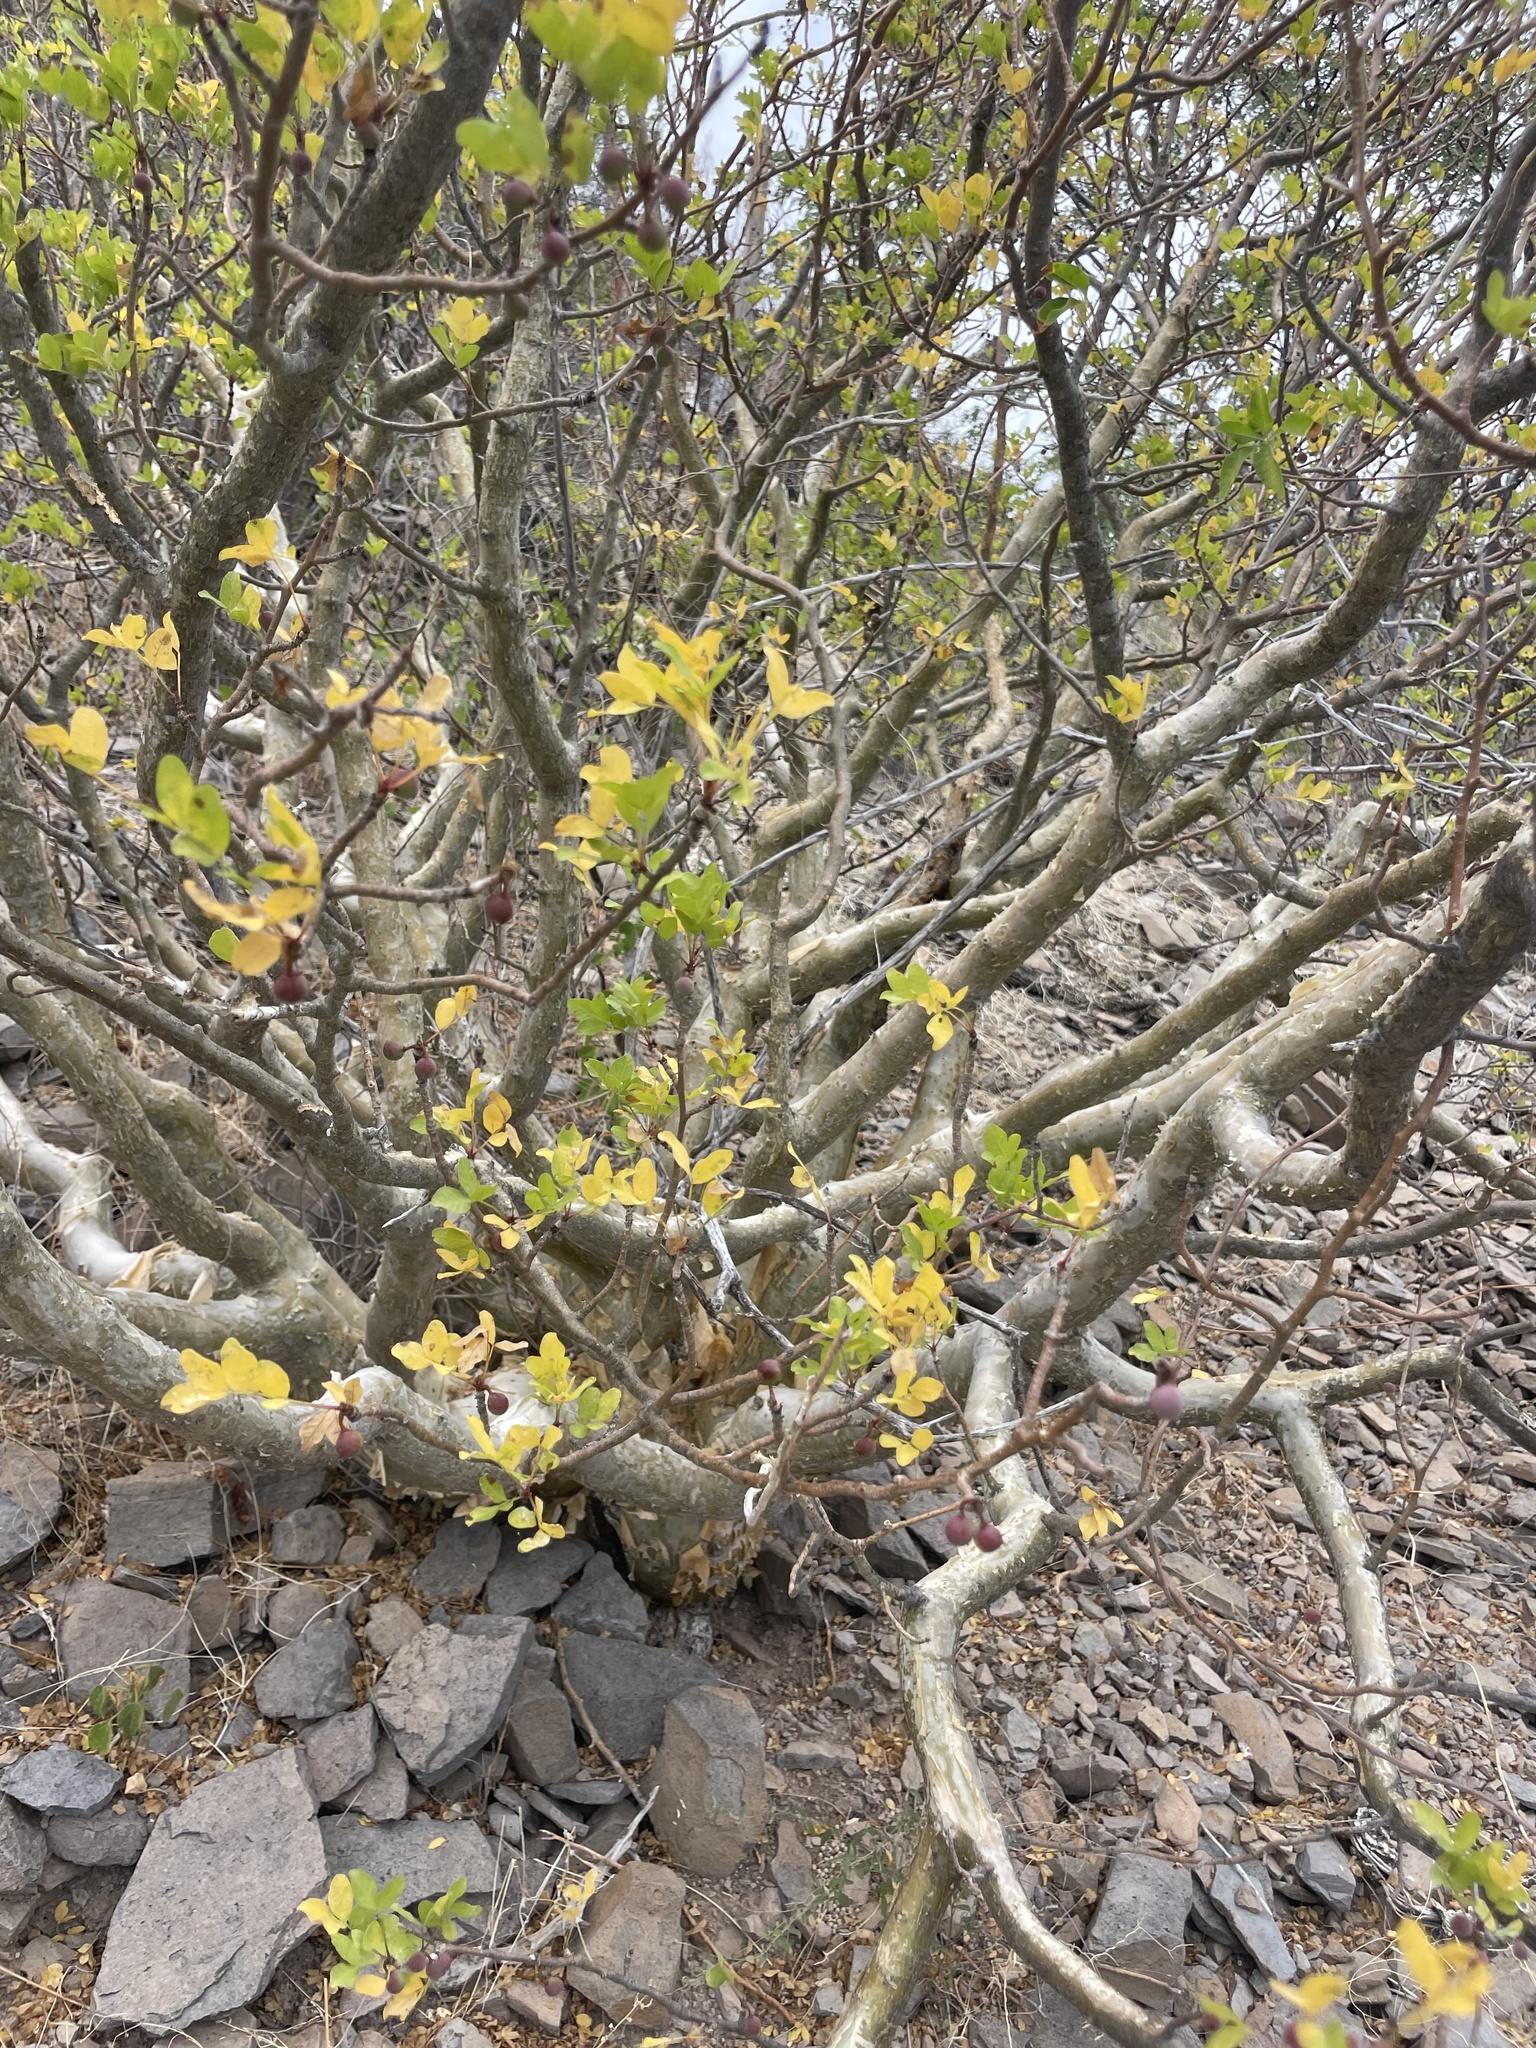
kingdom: Plantae
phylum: Tracheophyta
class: Magnoliopsida
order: Sapindales
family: Burseraceae
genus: Bursera
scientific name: Bursera fagaroides
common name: Elephant tree
